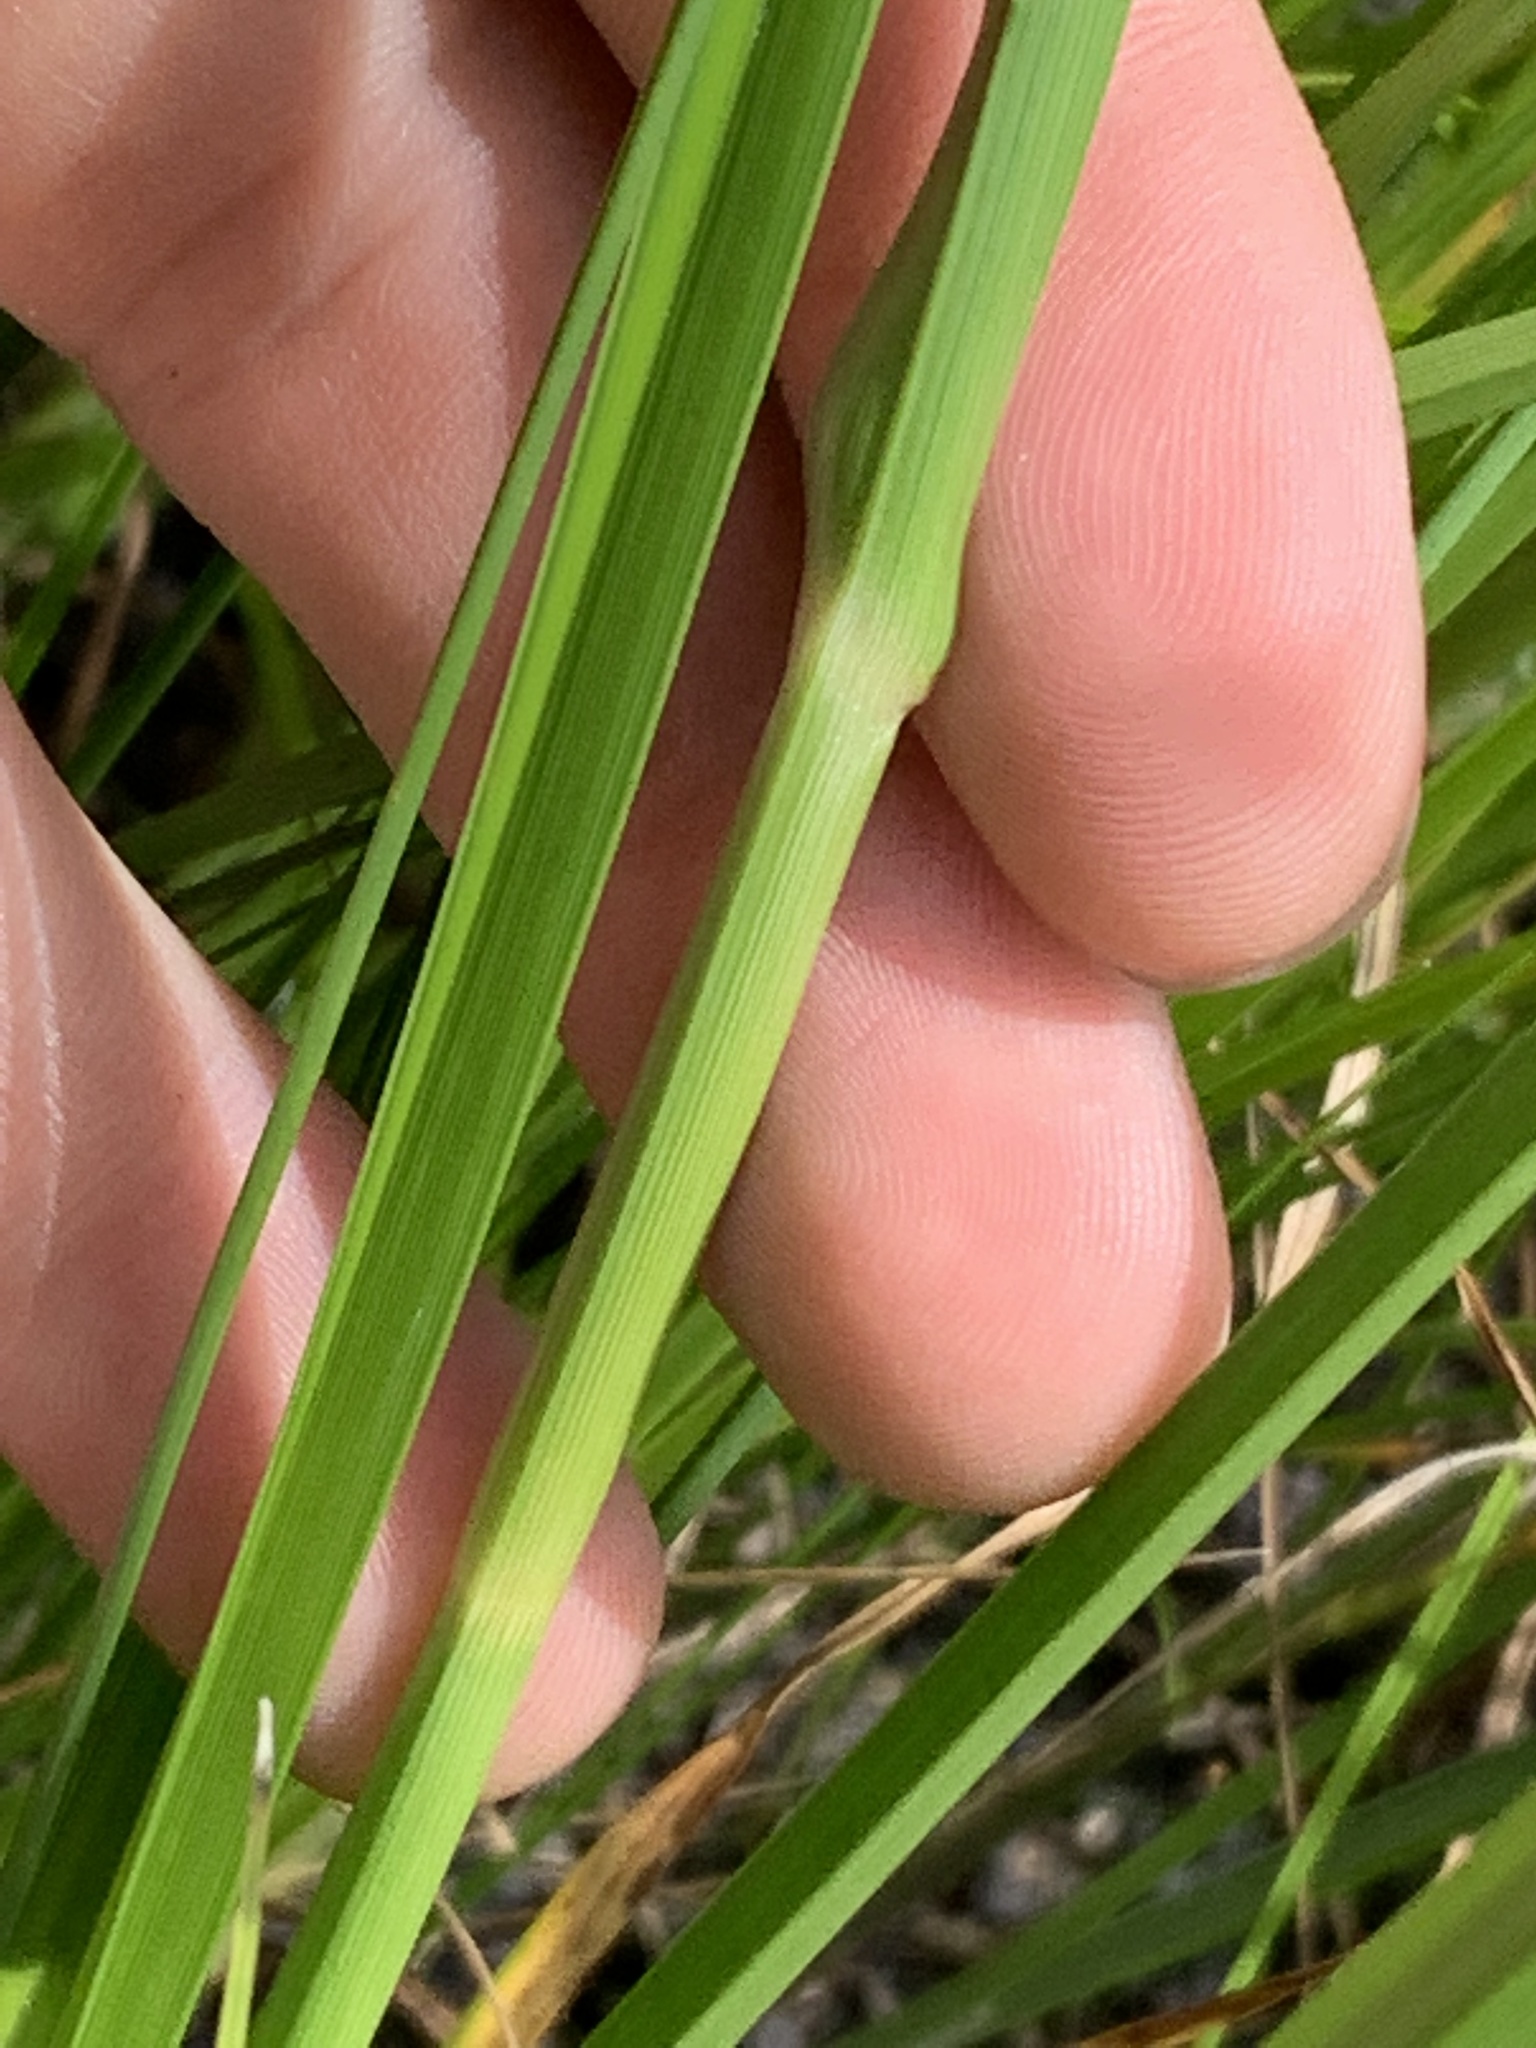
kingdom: Plantae
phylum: Tracheophyta
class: Liliopsida
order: Poales
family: Cyperaceae
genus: Rhynchospora
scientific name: Rhynchospora inundata
